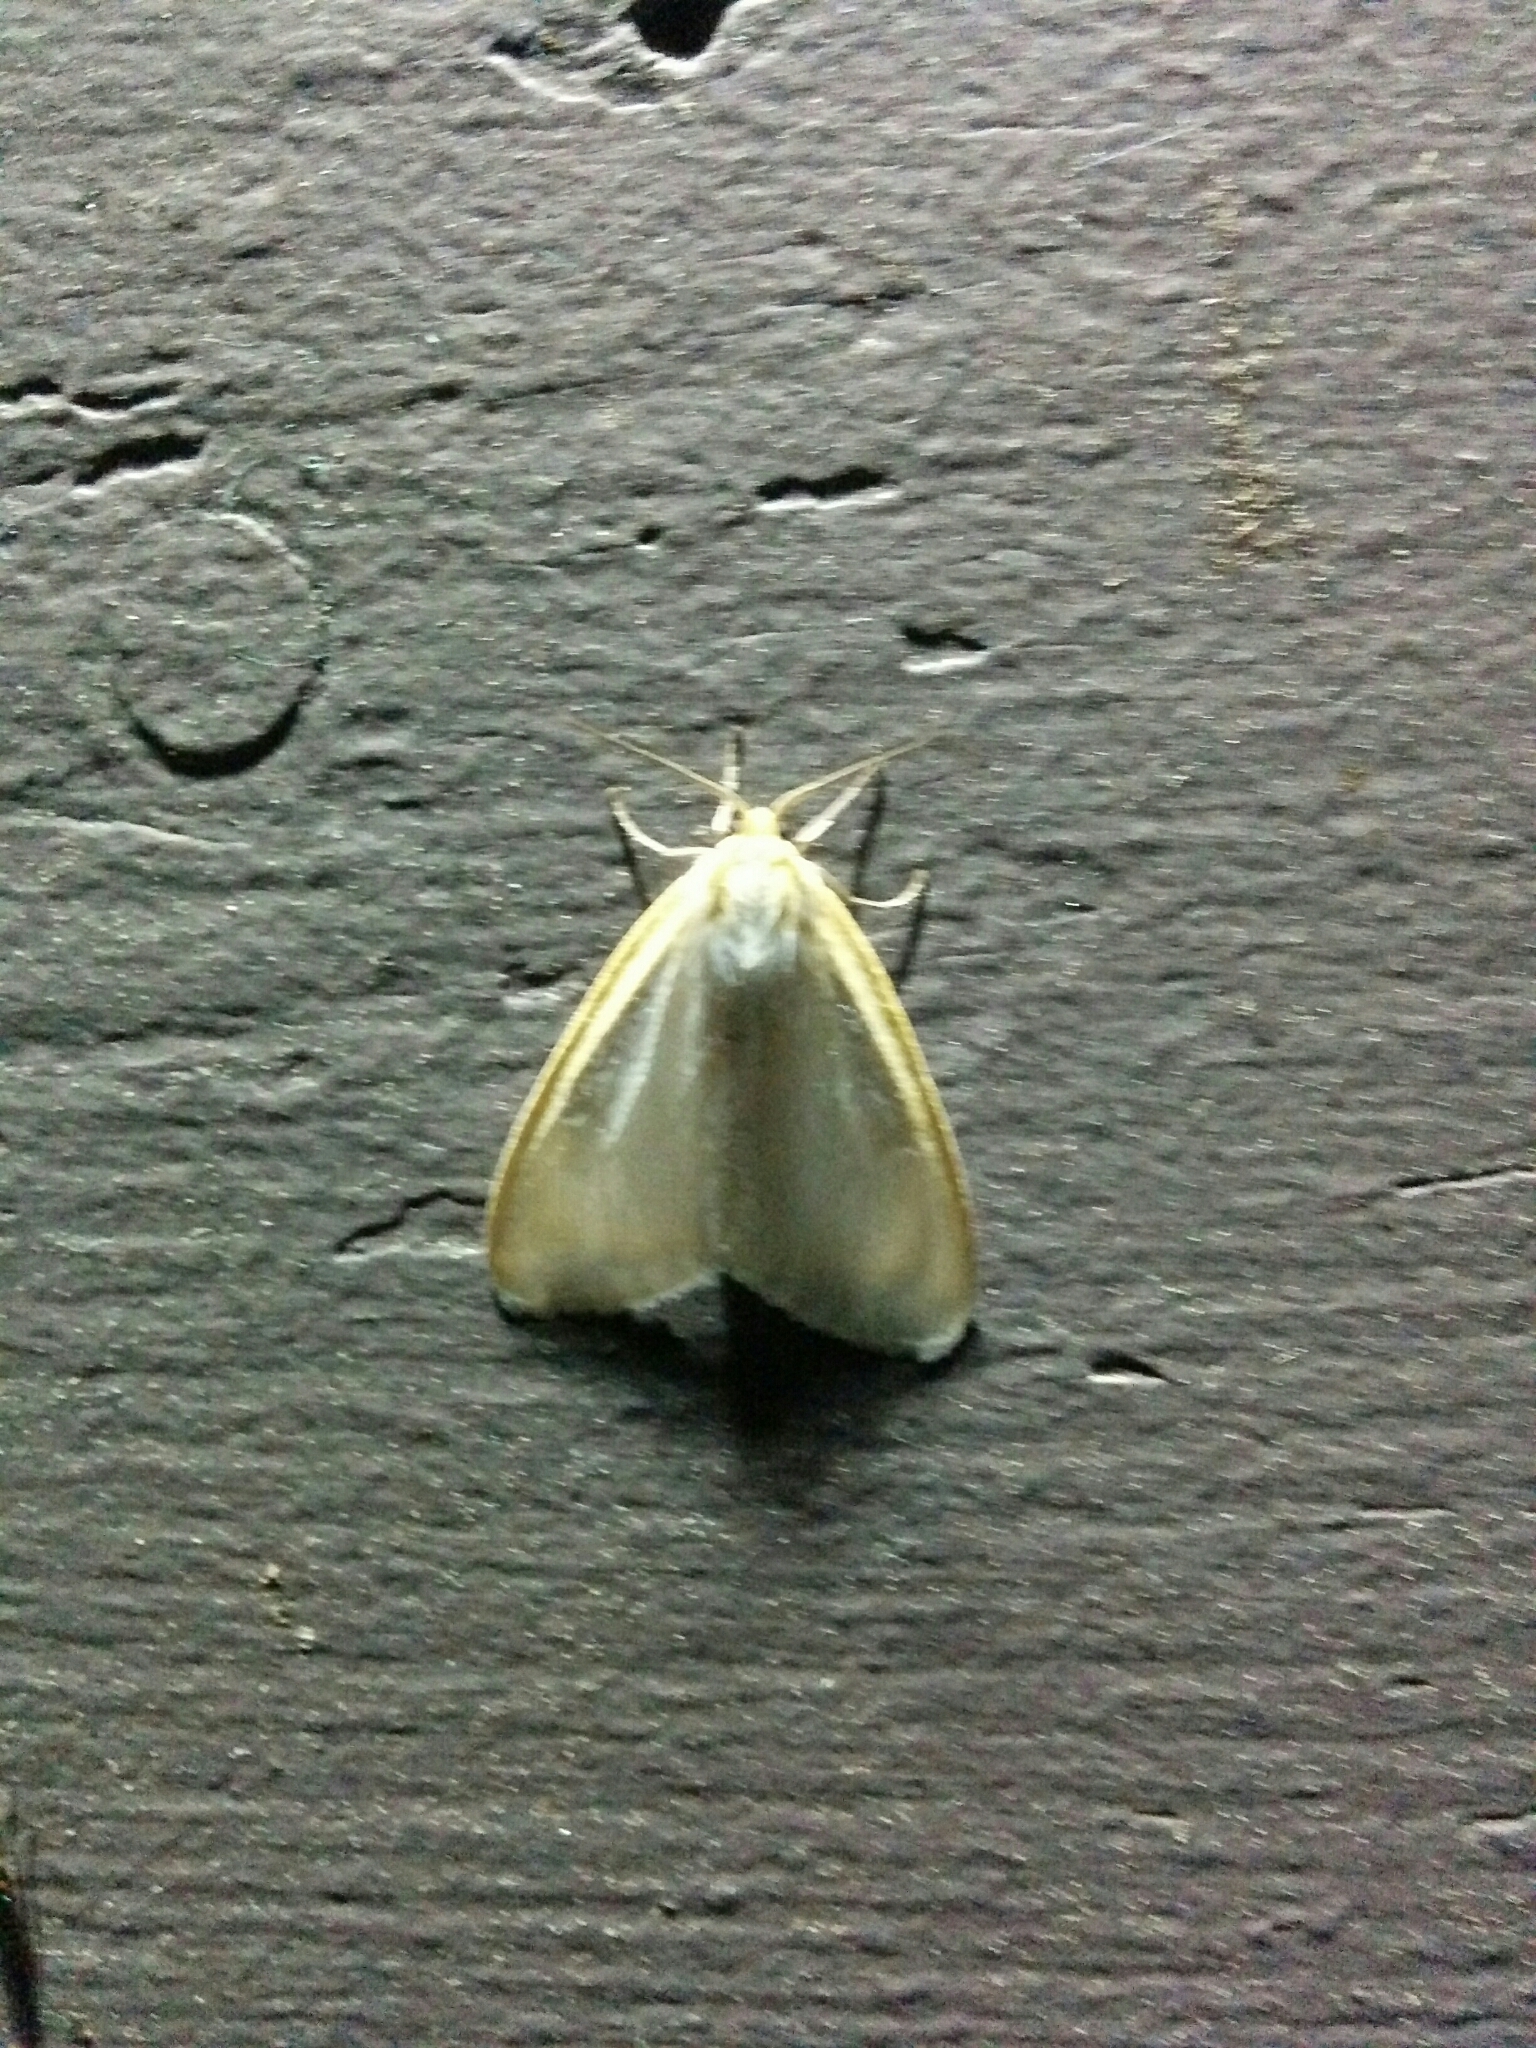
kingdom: Animalia
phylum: Arthropoda
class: Insecta
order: Lepidoptera
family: Erebidae
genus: Cycnia
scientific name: Cycnia tenera
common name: Delicate cycnia moth
